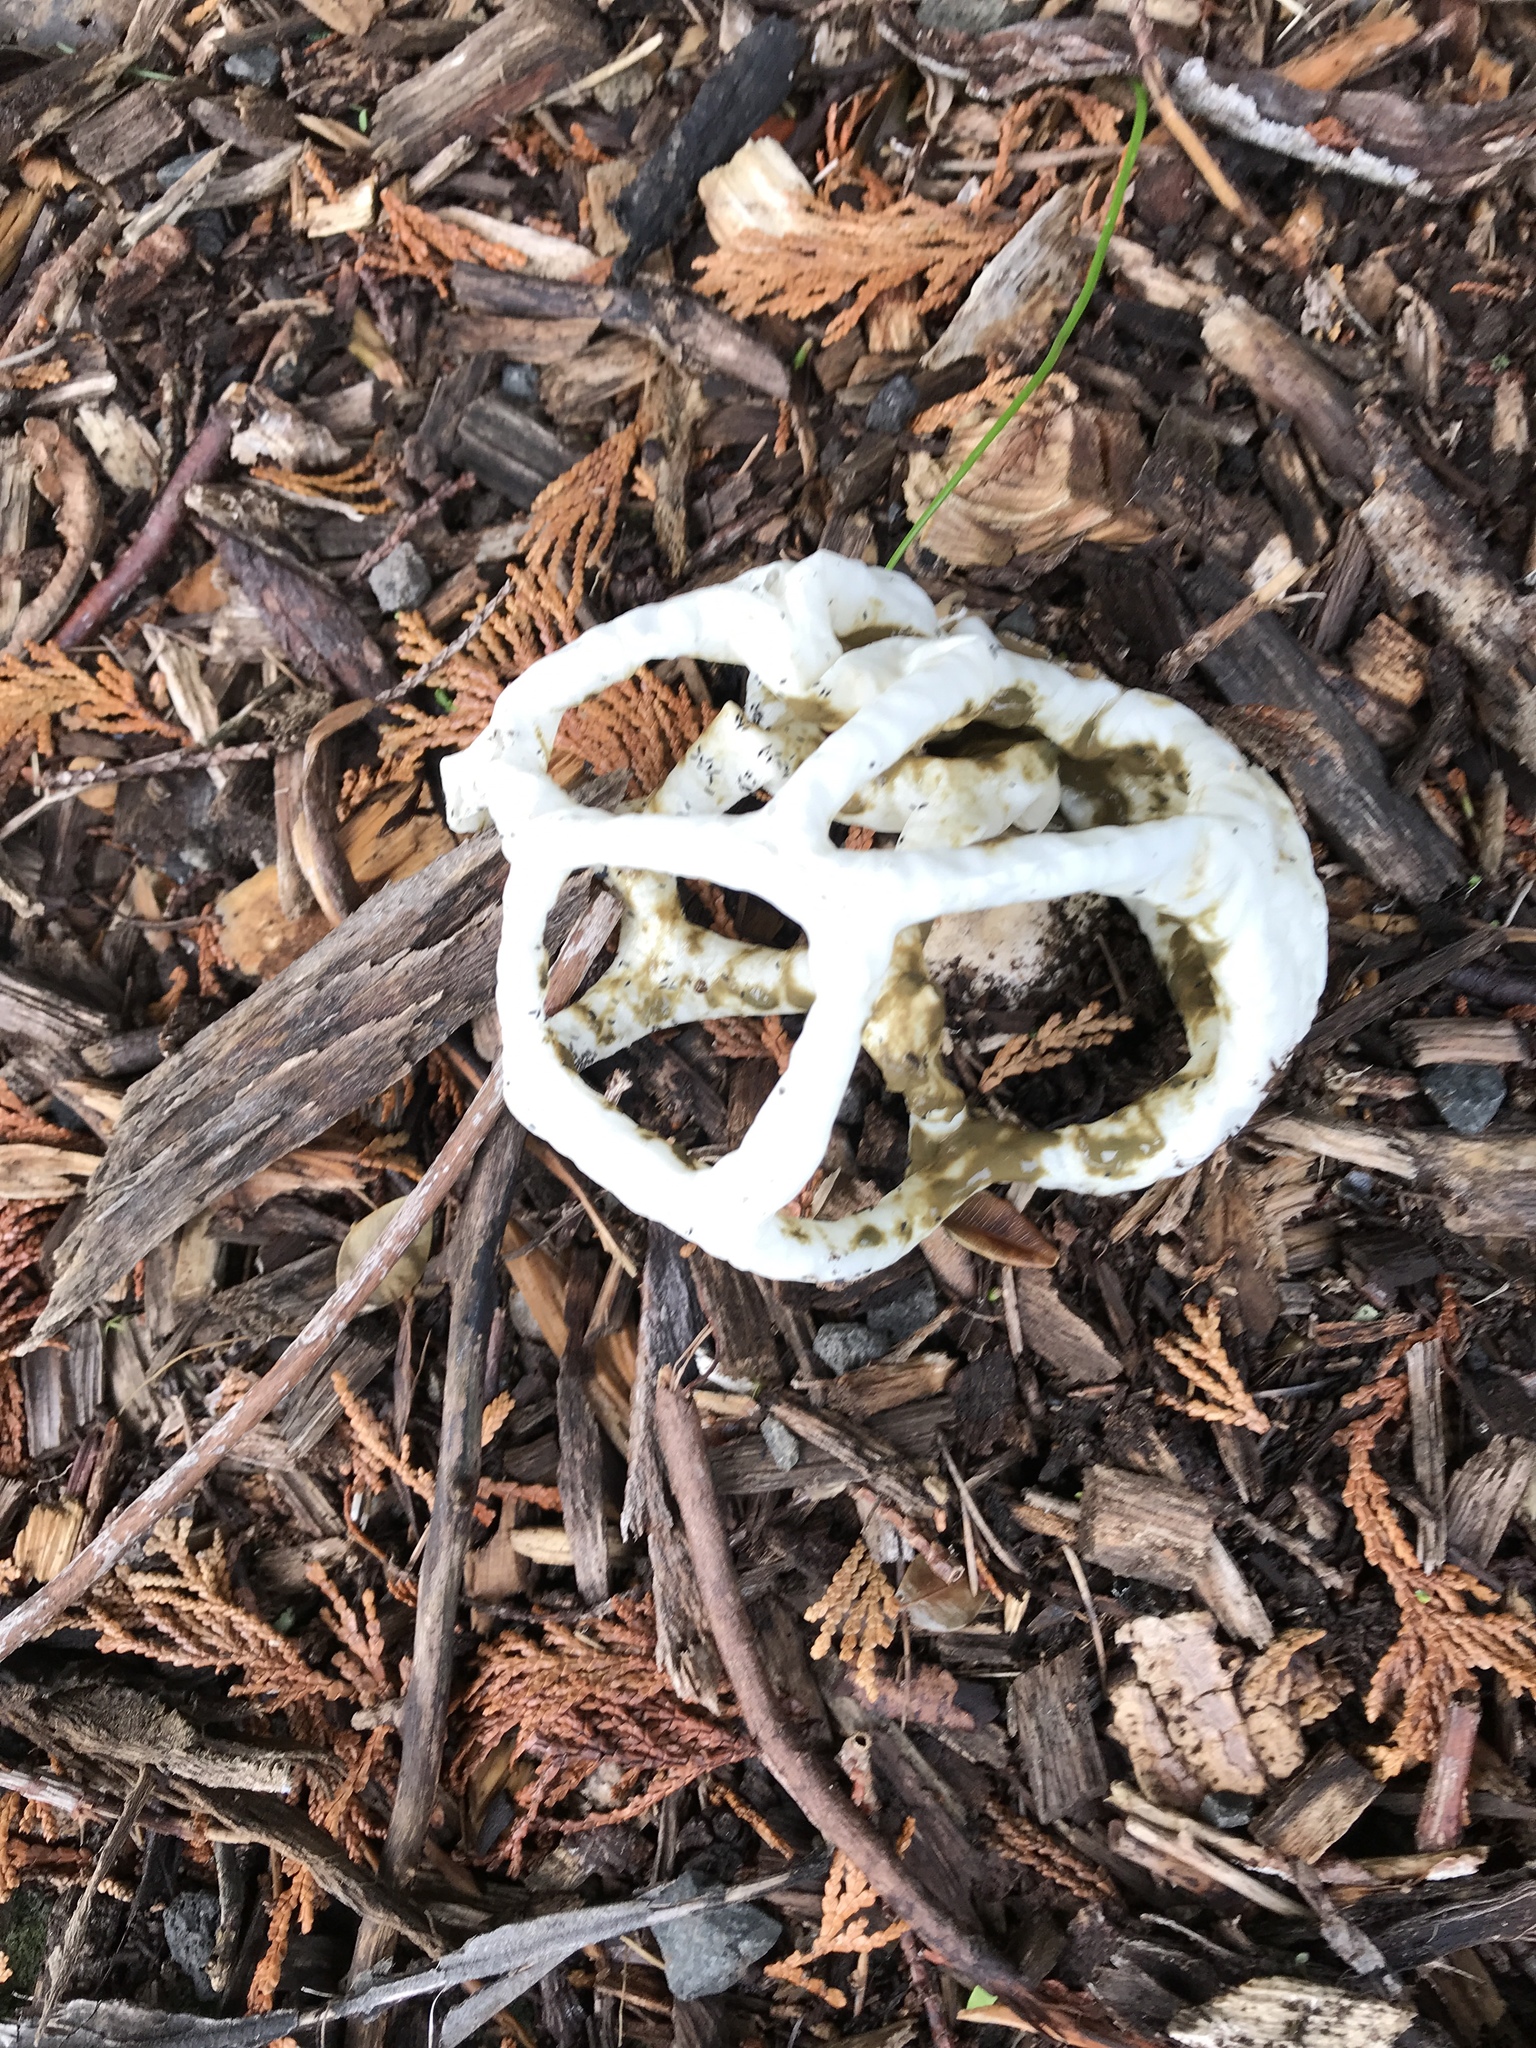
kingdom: Fungi
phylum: Basidiomycota
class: Agaricomycetes
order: Phallales
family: Phallaceae
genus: Ileodictyon
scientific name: Ileodictyon cibarium
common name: Basket fungus
